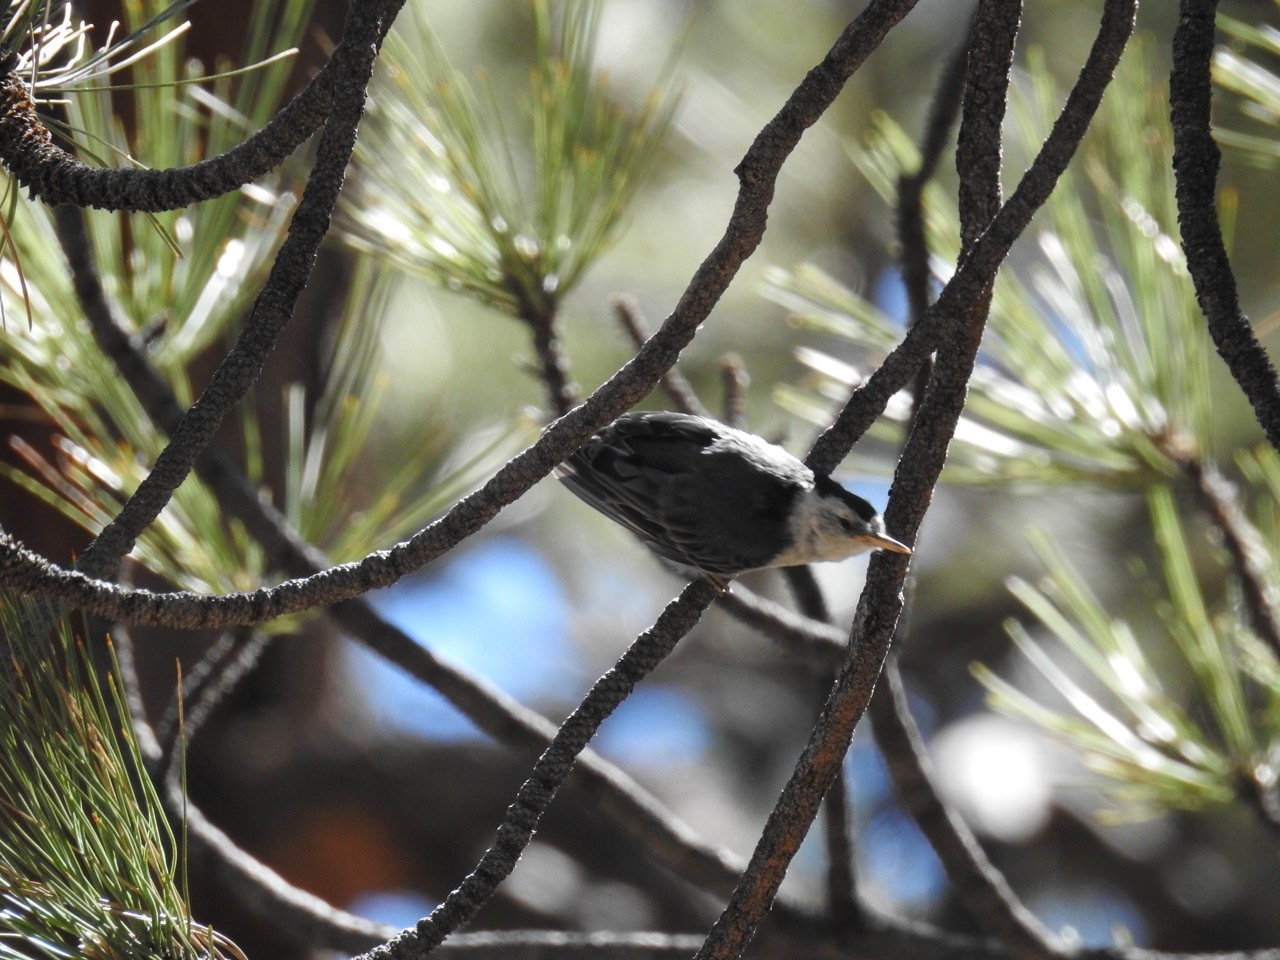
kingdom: Animalia
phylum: Chordata
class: Aves
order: Passeriformes
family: Sittidae
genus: Sitta
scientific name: Sitta carolinensis
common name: White-breasted nuthatch
